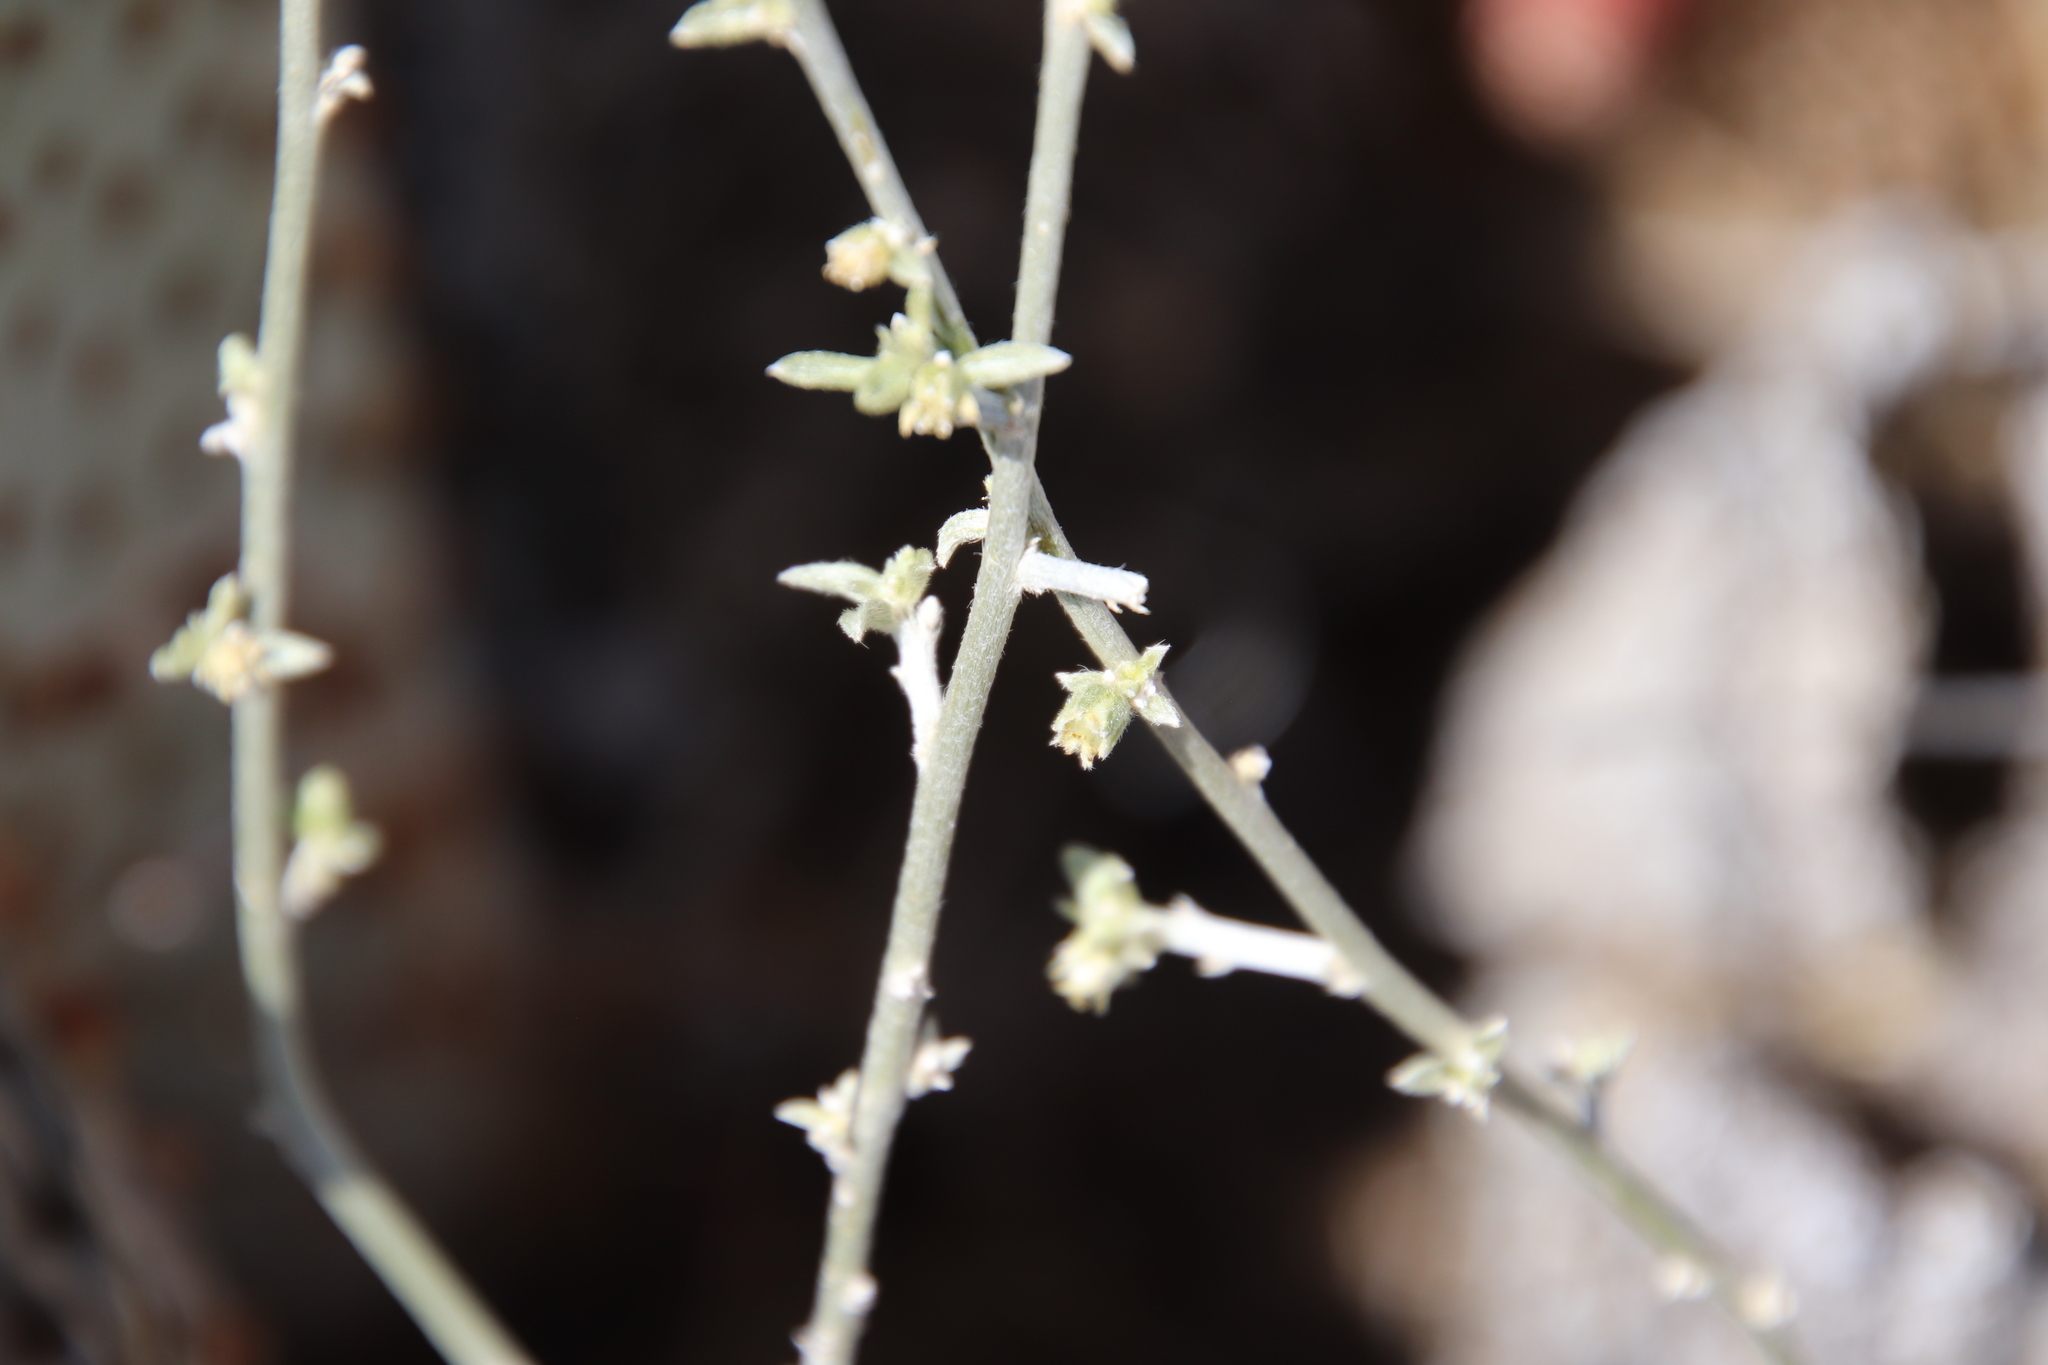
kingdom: Plantae
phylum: Tracheophyta
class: Magnoliopsida
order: Malpighiales
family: Euphorbiaceae
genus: Ditaxis
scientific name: Ditaxis lanceolata
